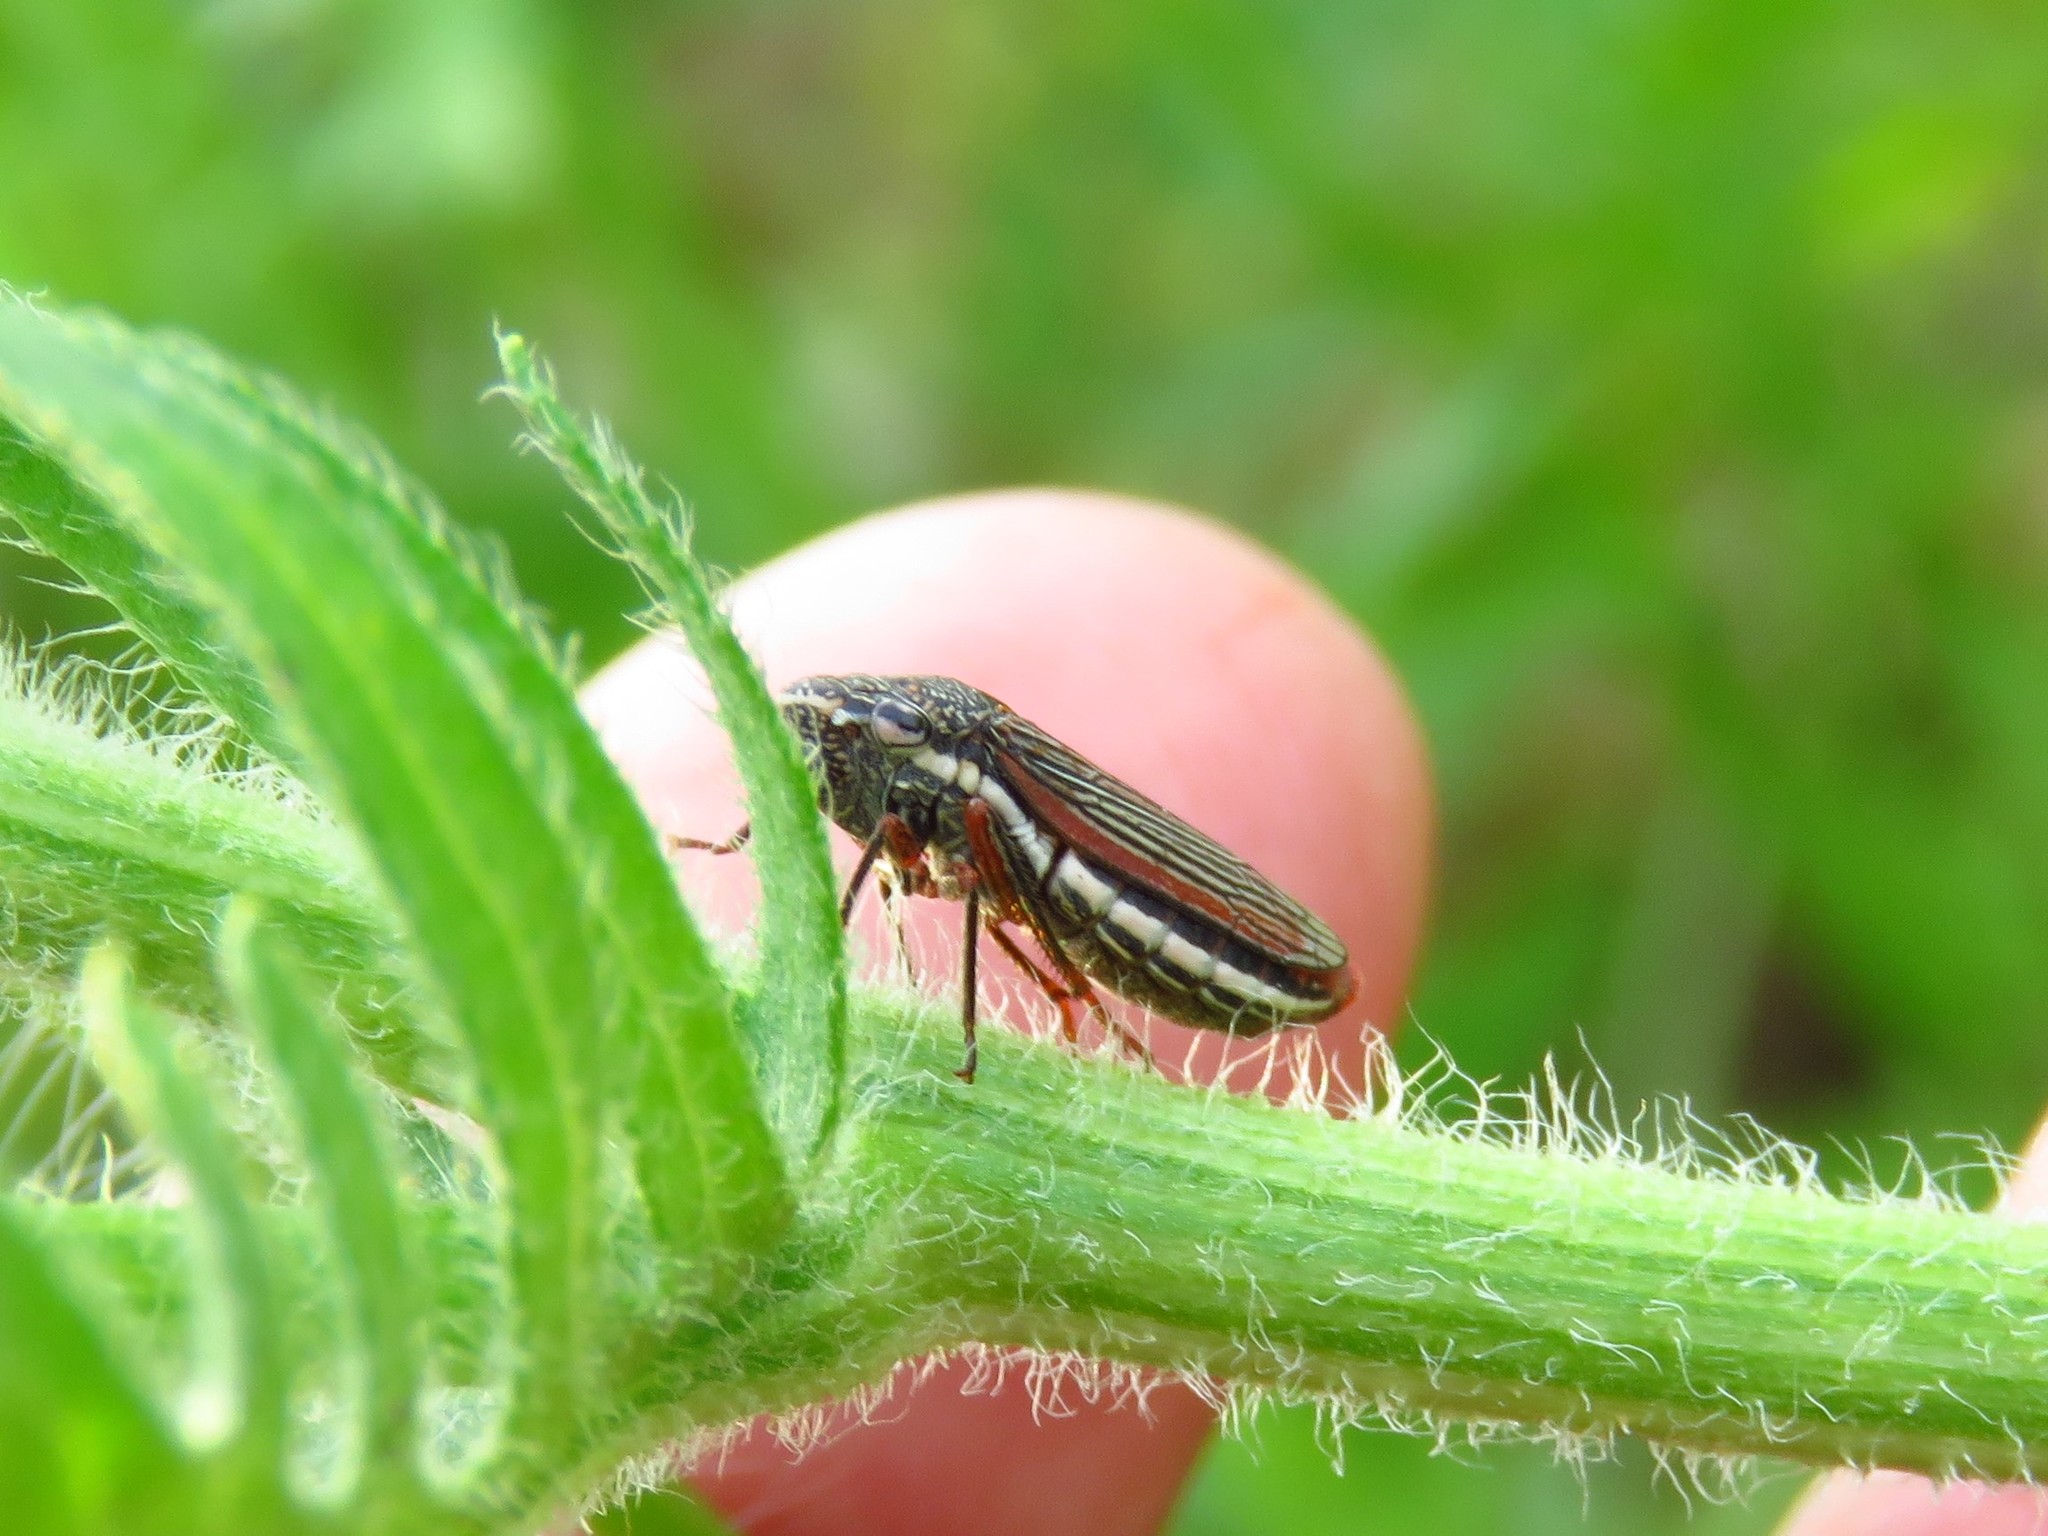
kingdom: Animalia
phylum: Arthropoda
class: Insecta
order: Hemiptera
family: Cicadellidae
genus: Cuerna
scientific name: Cuerna costalis
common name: Lateral-lined sharpshooter
